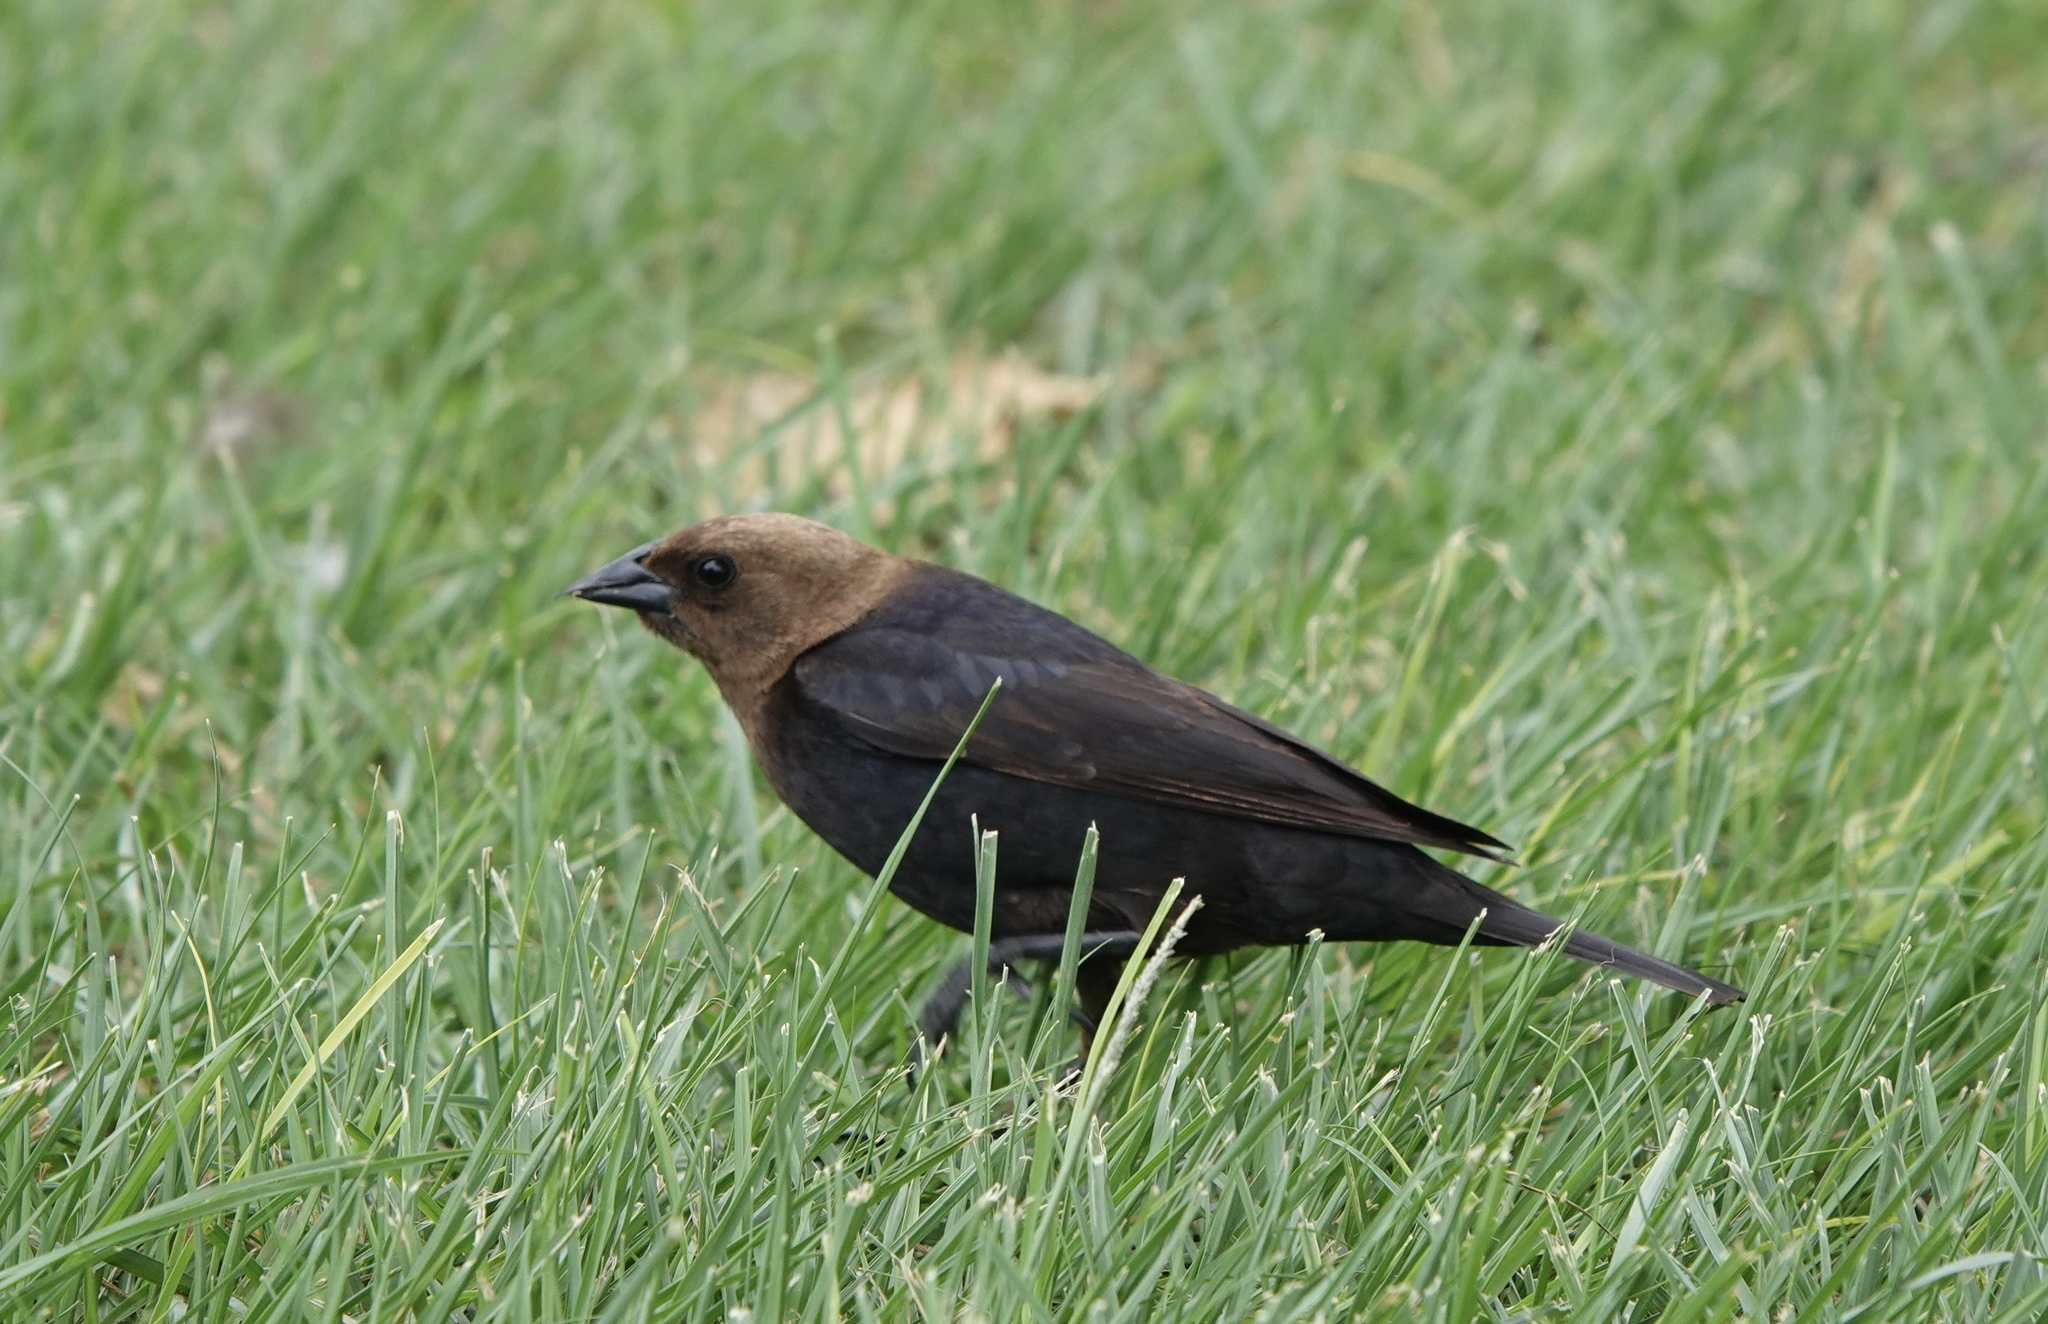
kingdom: Animalia
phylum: Chordata
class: Aves
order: Passeriformes
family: Icteridae
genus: Molothrus
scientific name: Molothrus ater
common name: Brown-headed cowbird
